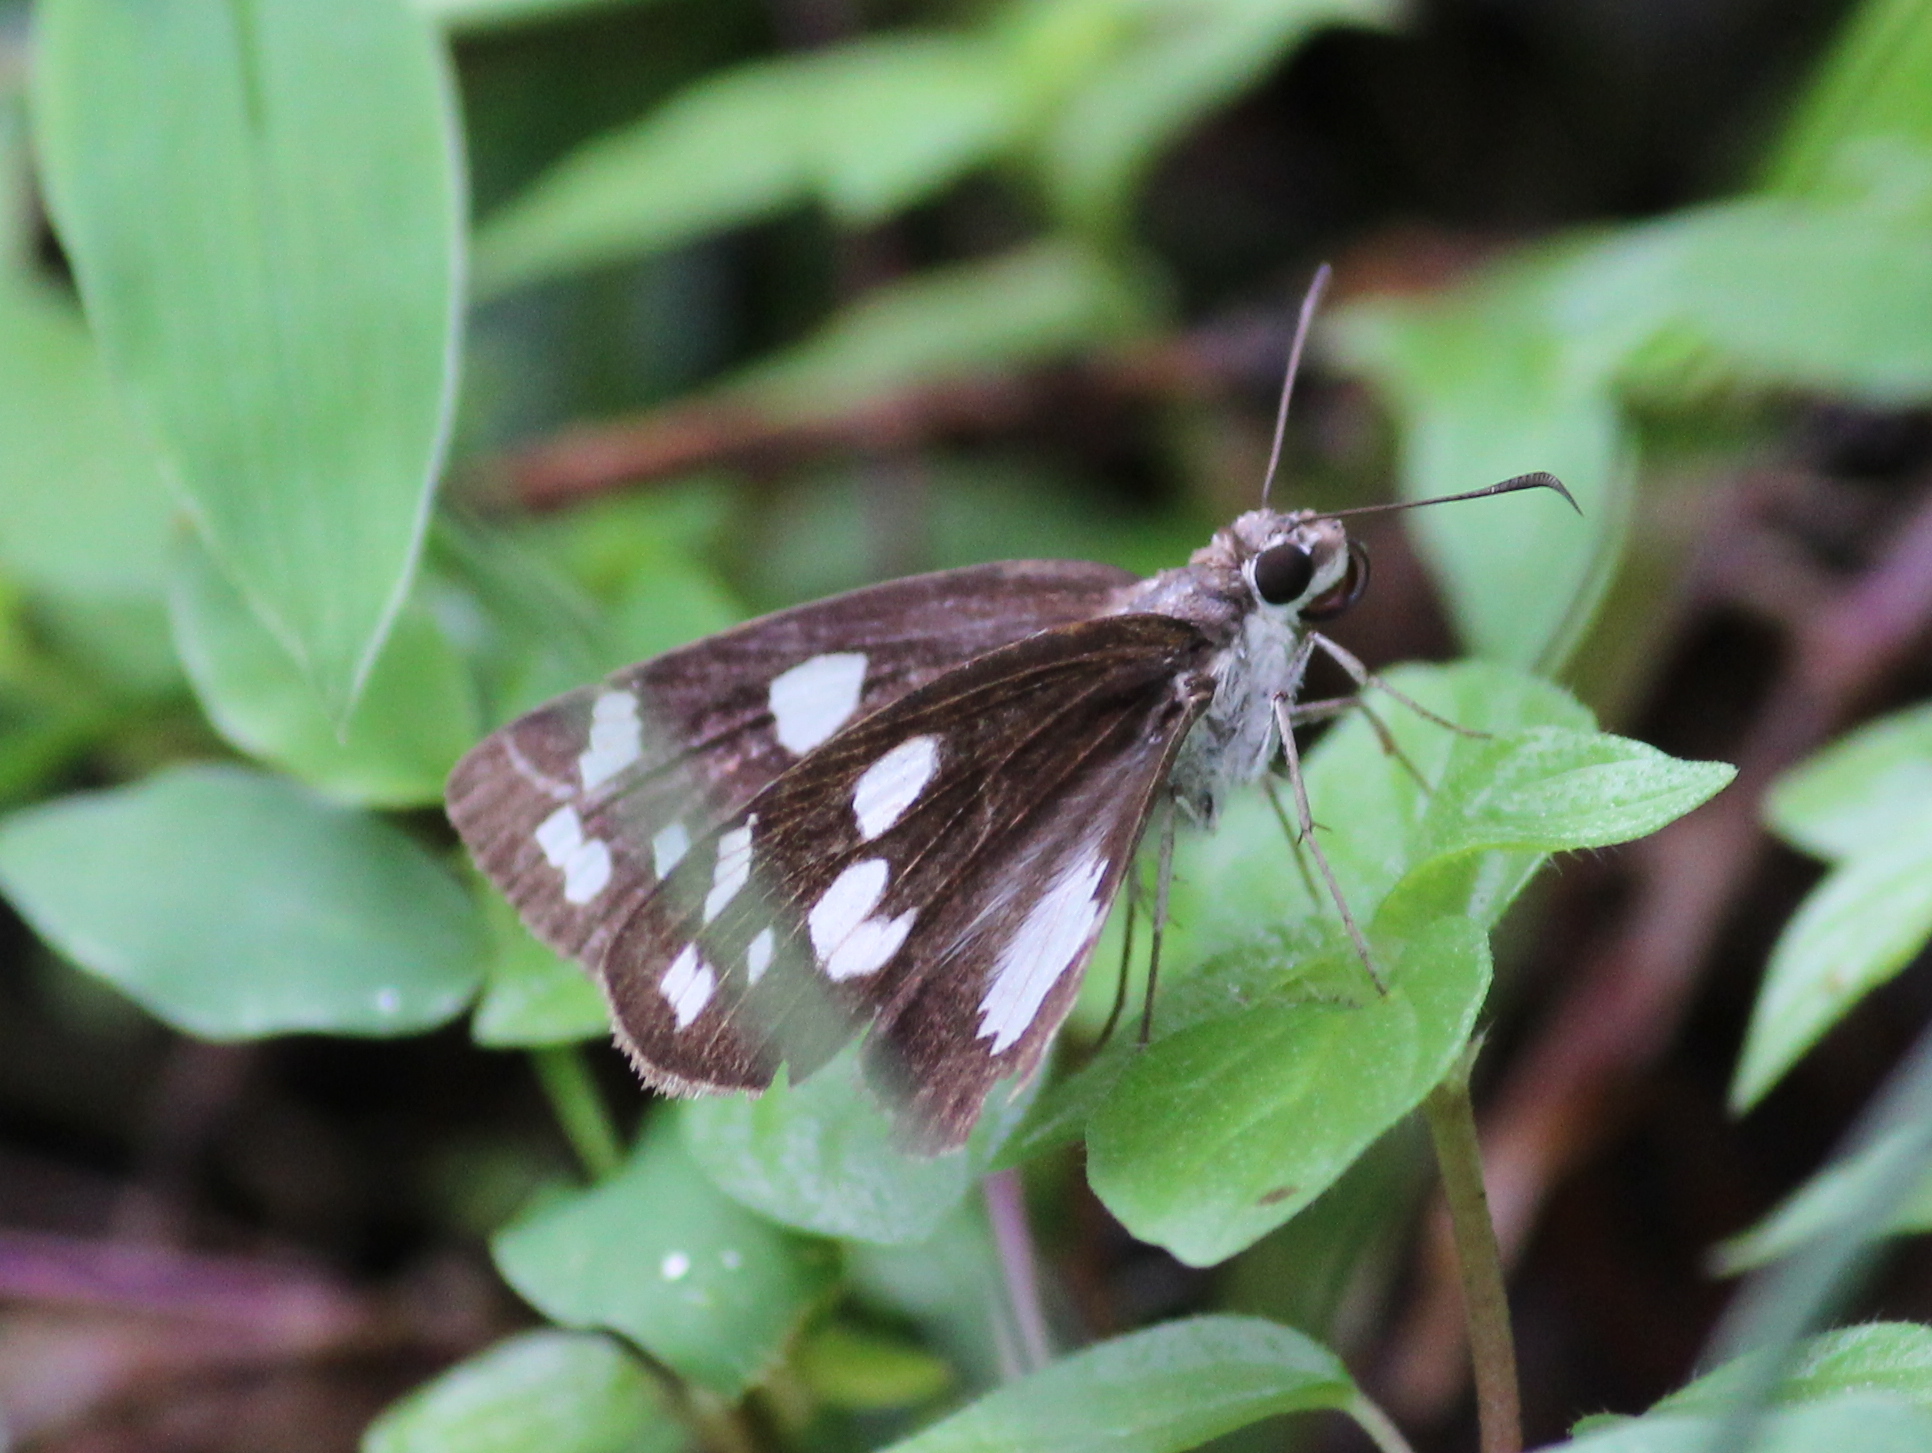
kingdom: Animalia
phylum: Arthropoda
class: Insecta
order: Lepidoptera
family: Hesperiidae
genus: Udaspes
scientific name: Udaspes folus
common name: Grass demon
